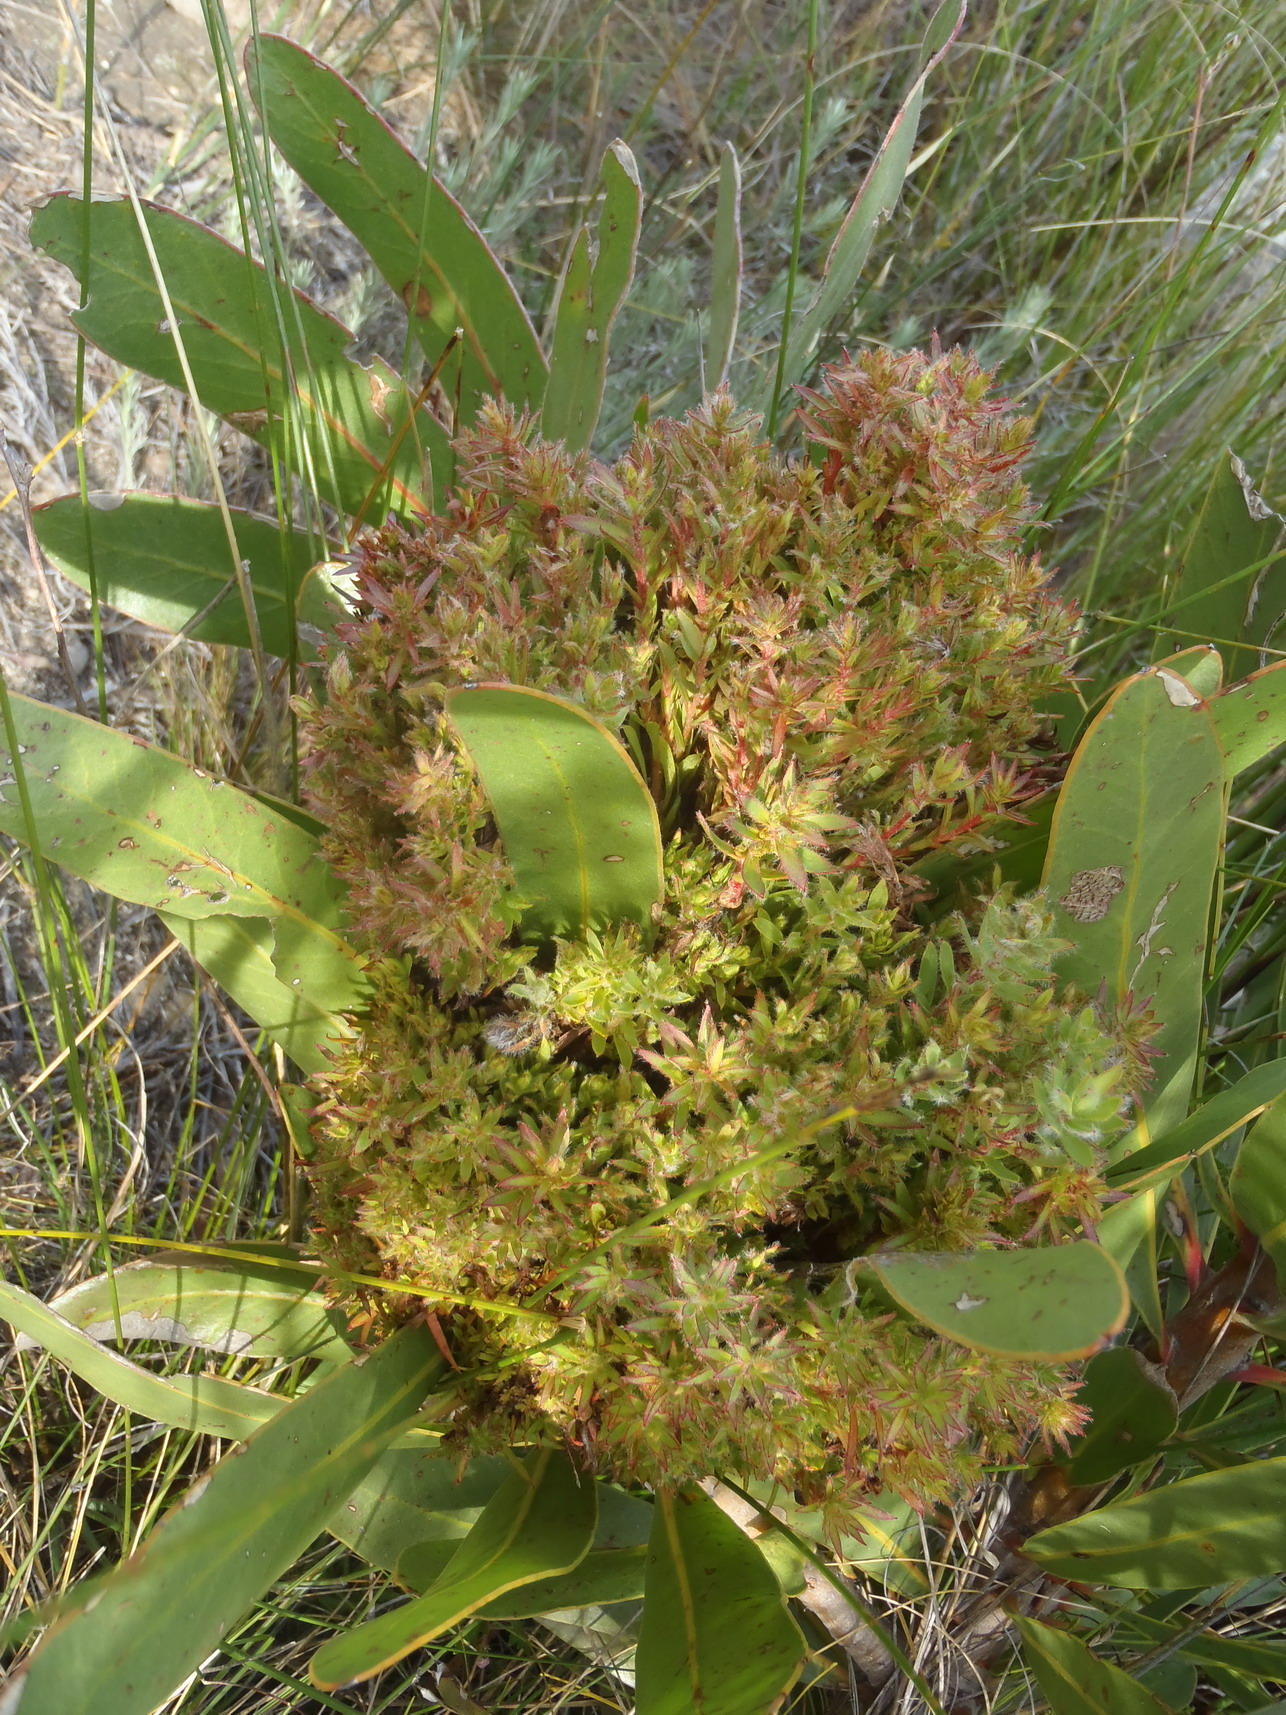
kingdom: Bacteria
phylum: Firmicutes
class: Bacilli
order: Acholeplasmatales
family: Acholeplasmataceae
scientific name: Acholeplasmataceae
